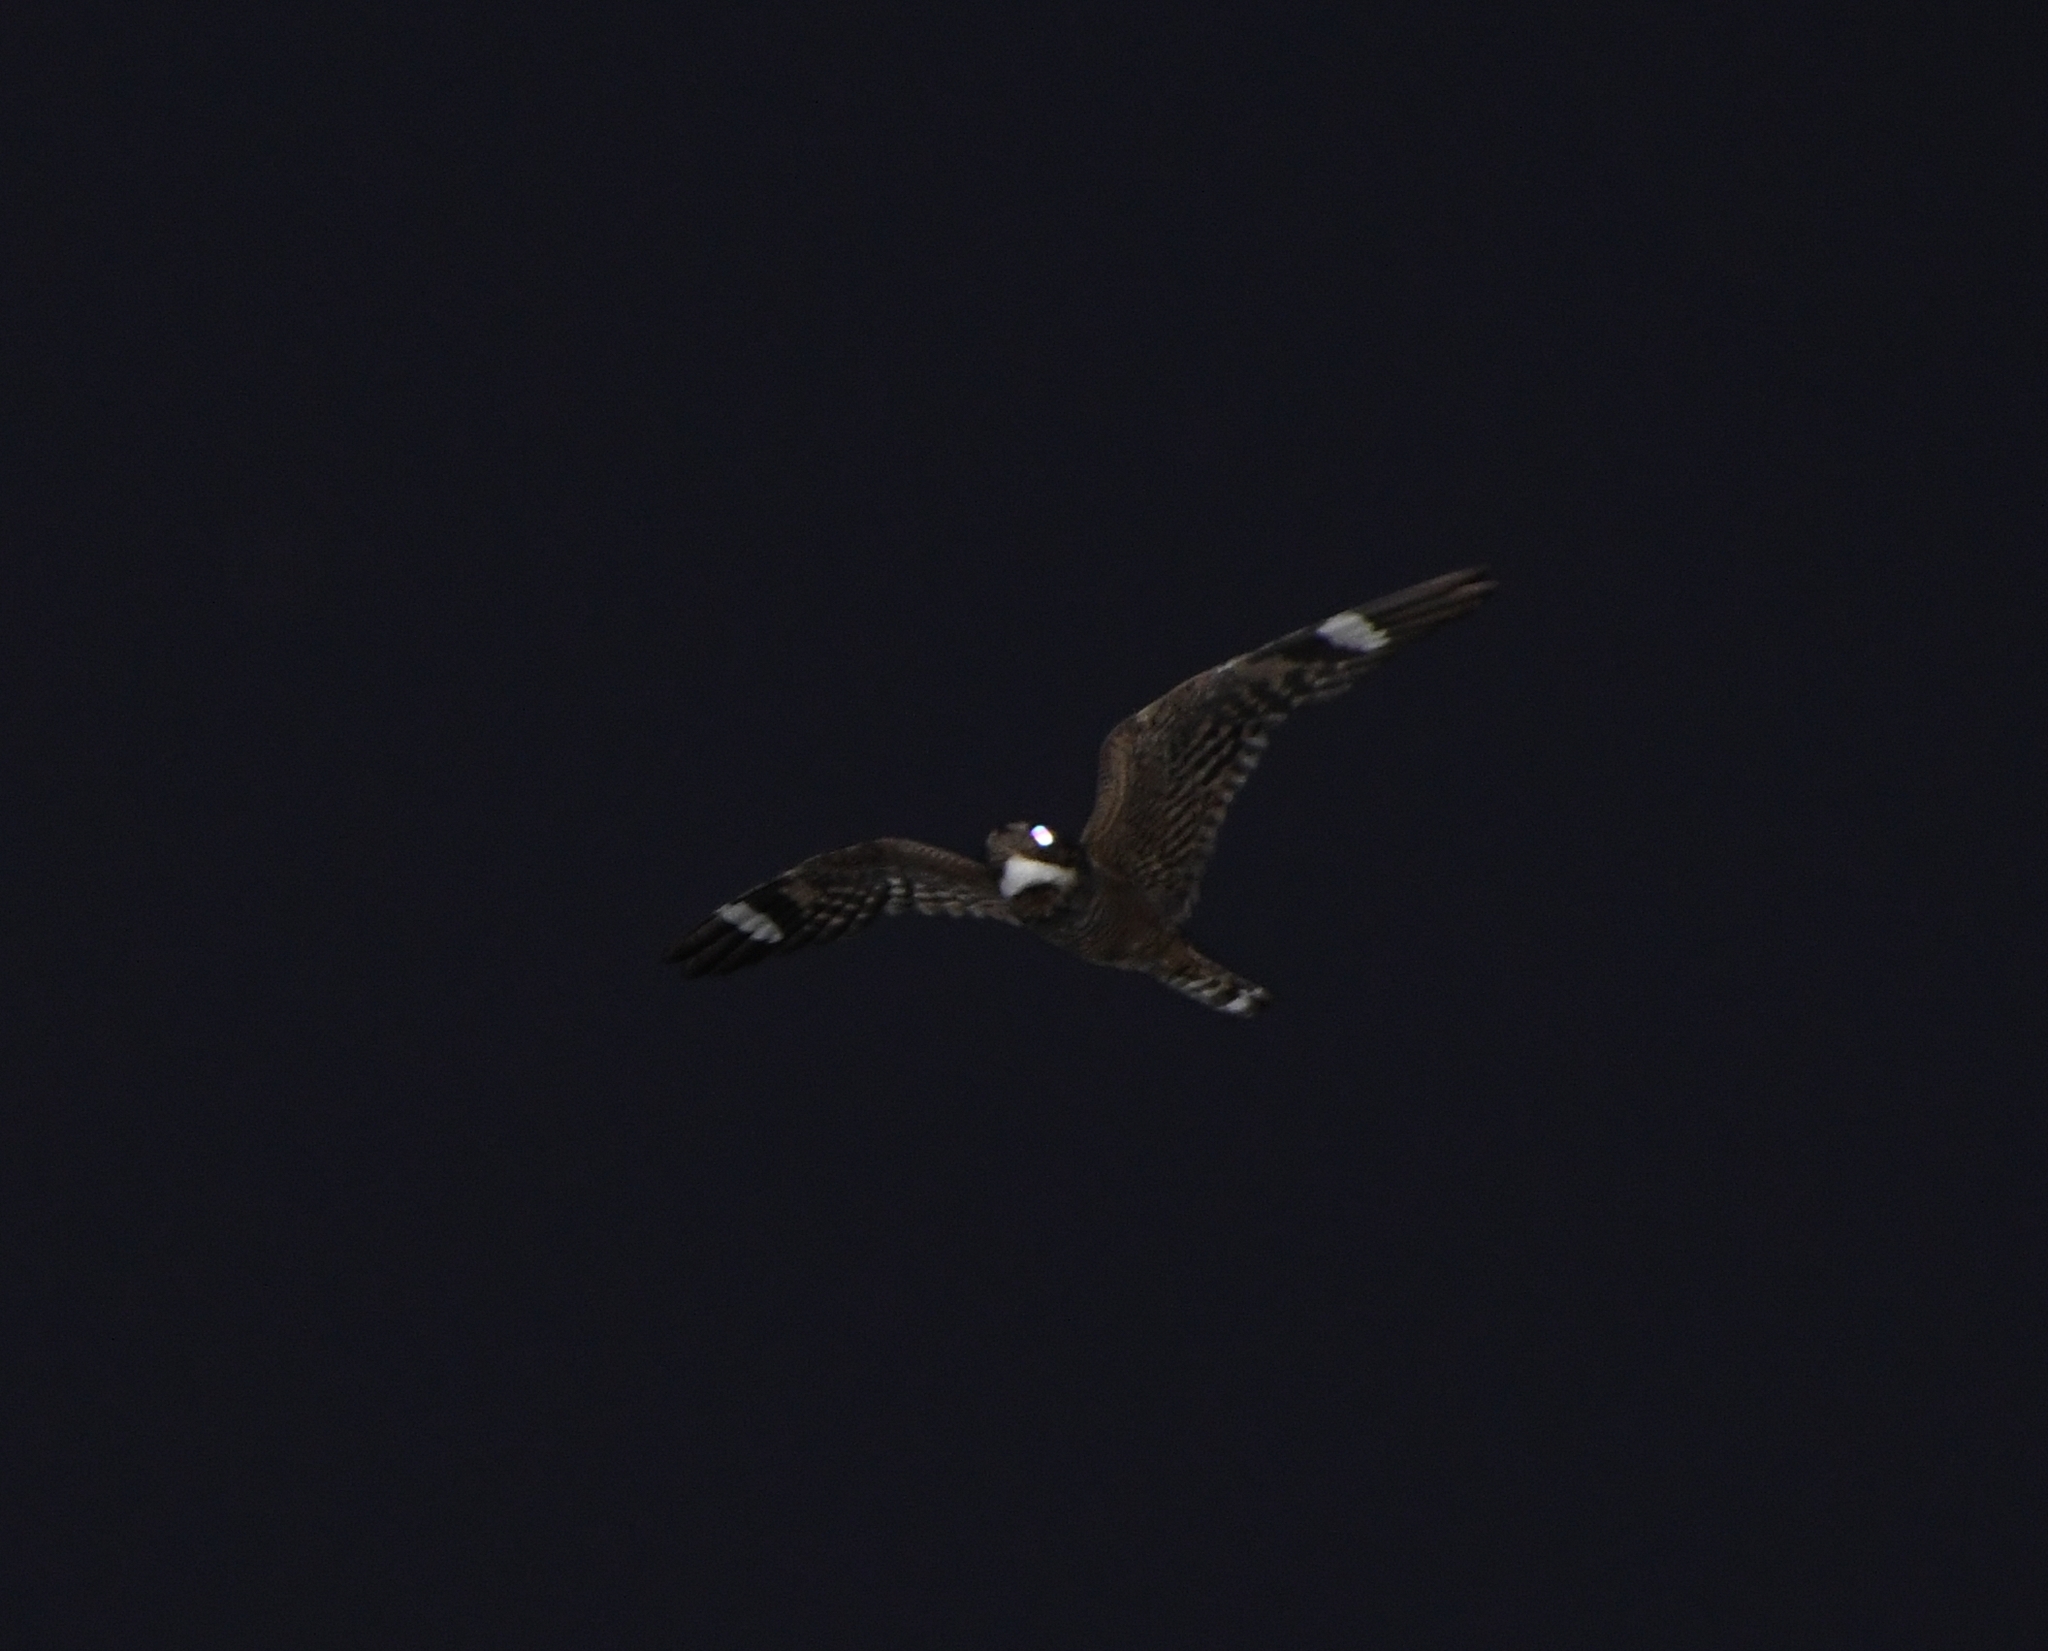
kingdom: Animalia
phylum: Chordata
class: Aves
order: Caprimulgiformes
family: Caprimulgidae
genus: Chordeiles
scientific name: Chordeiles acutipennis
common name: Lesser nighthawk
